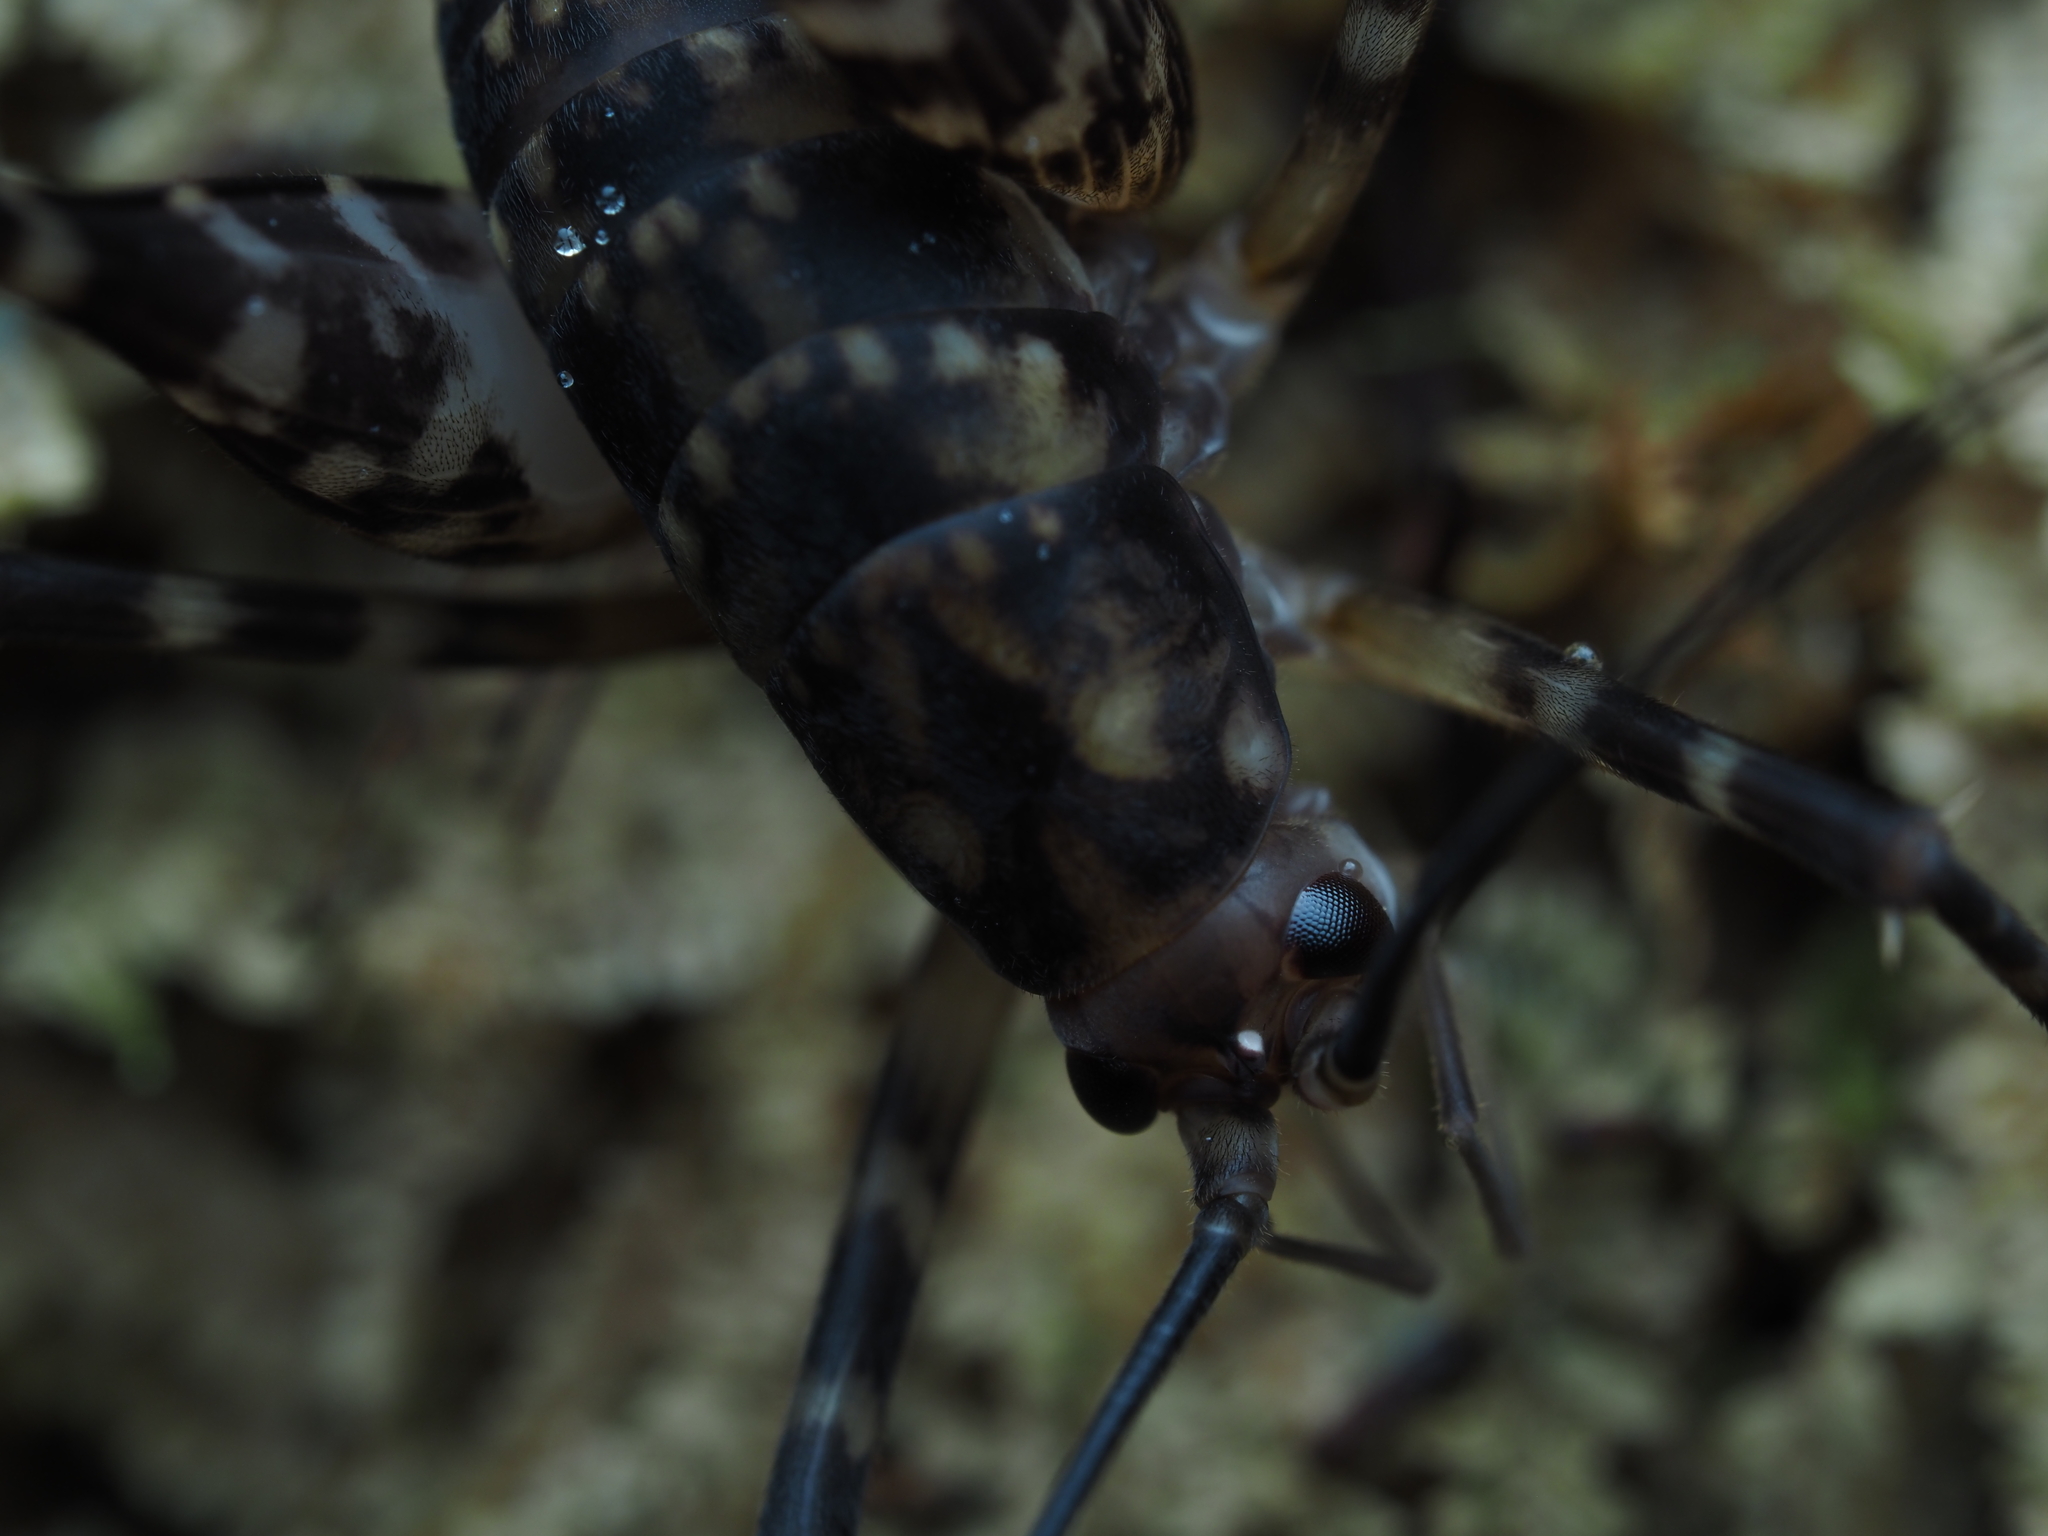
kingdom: Animalia
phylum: Arthropoda
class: Insecta
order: Orthoptera
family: Rhaphidophoridae
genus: Miotopus
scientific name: Miotopus richardsae
